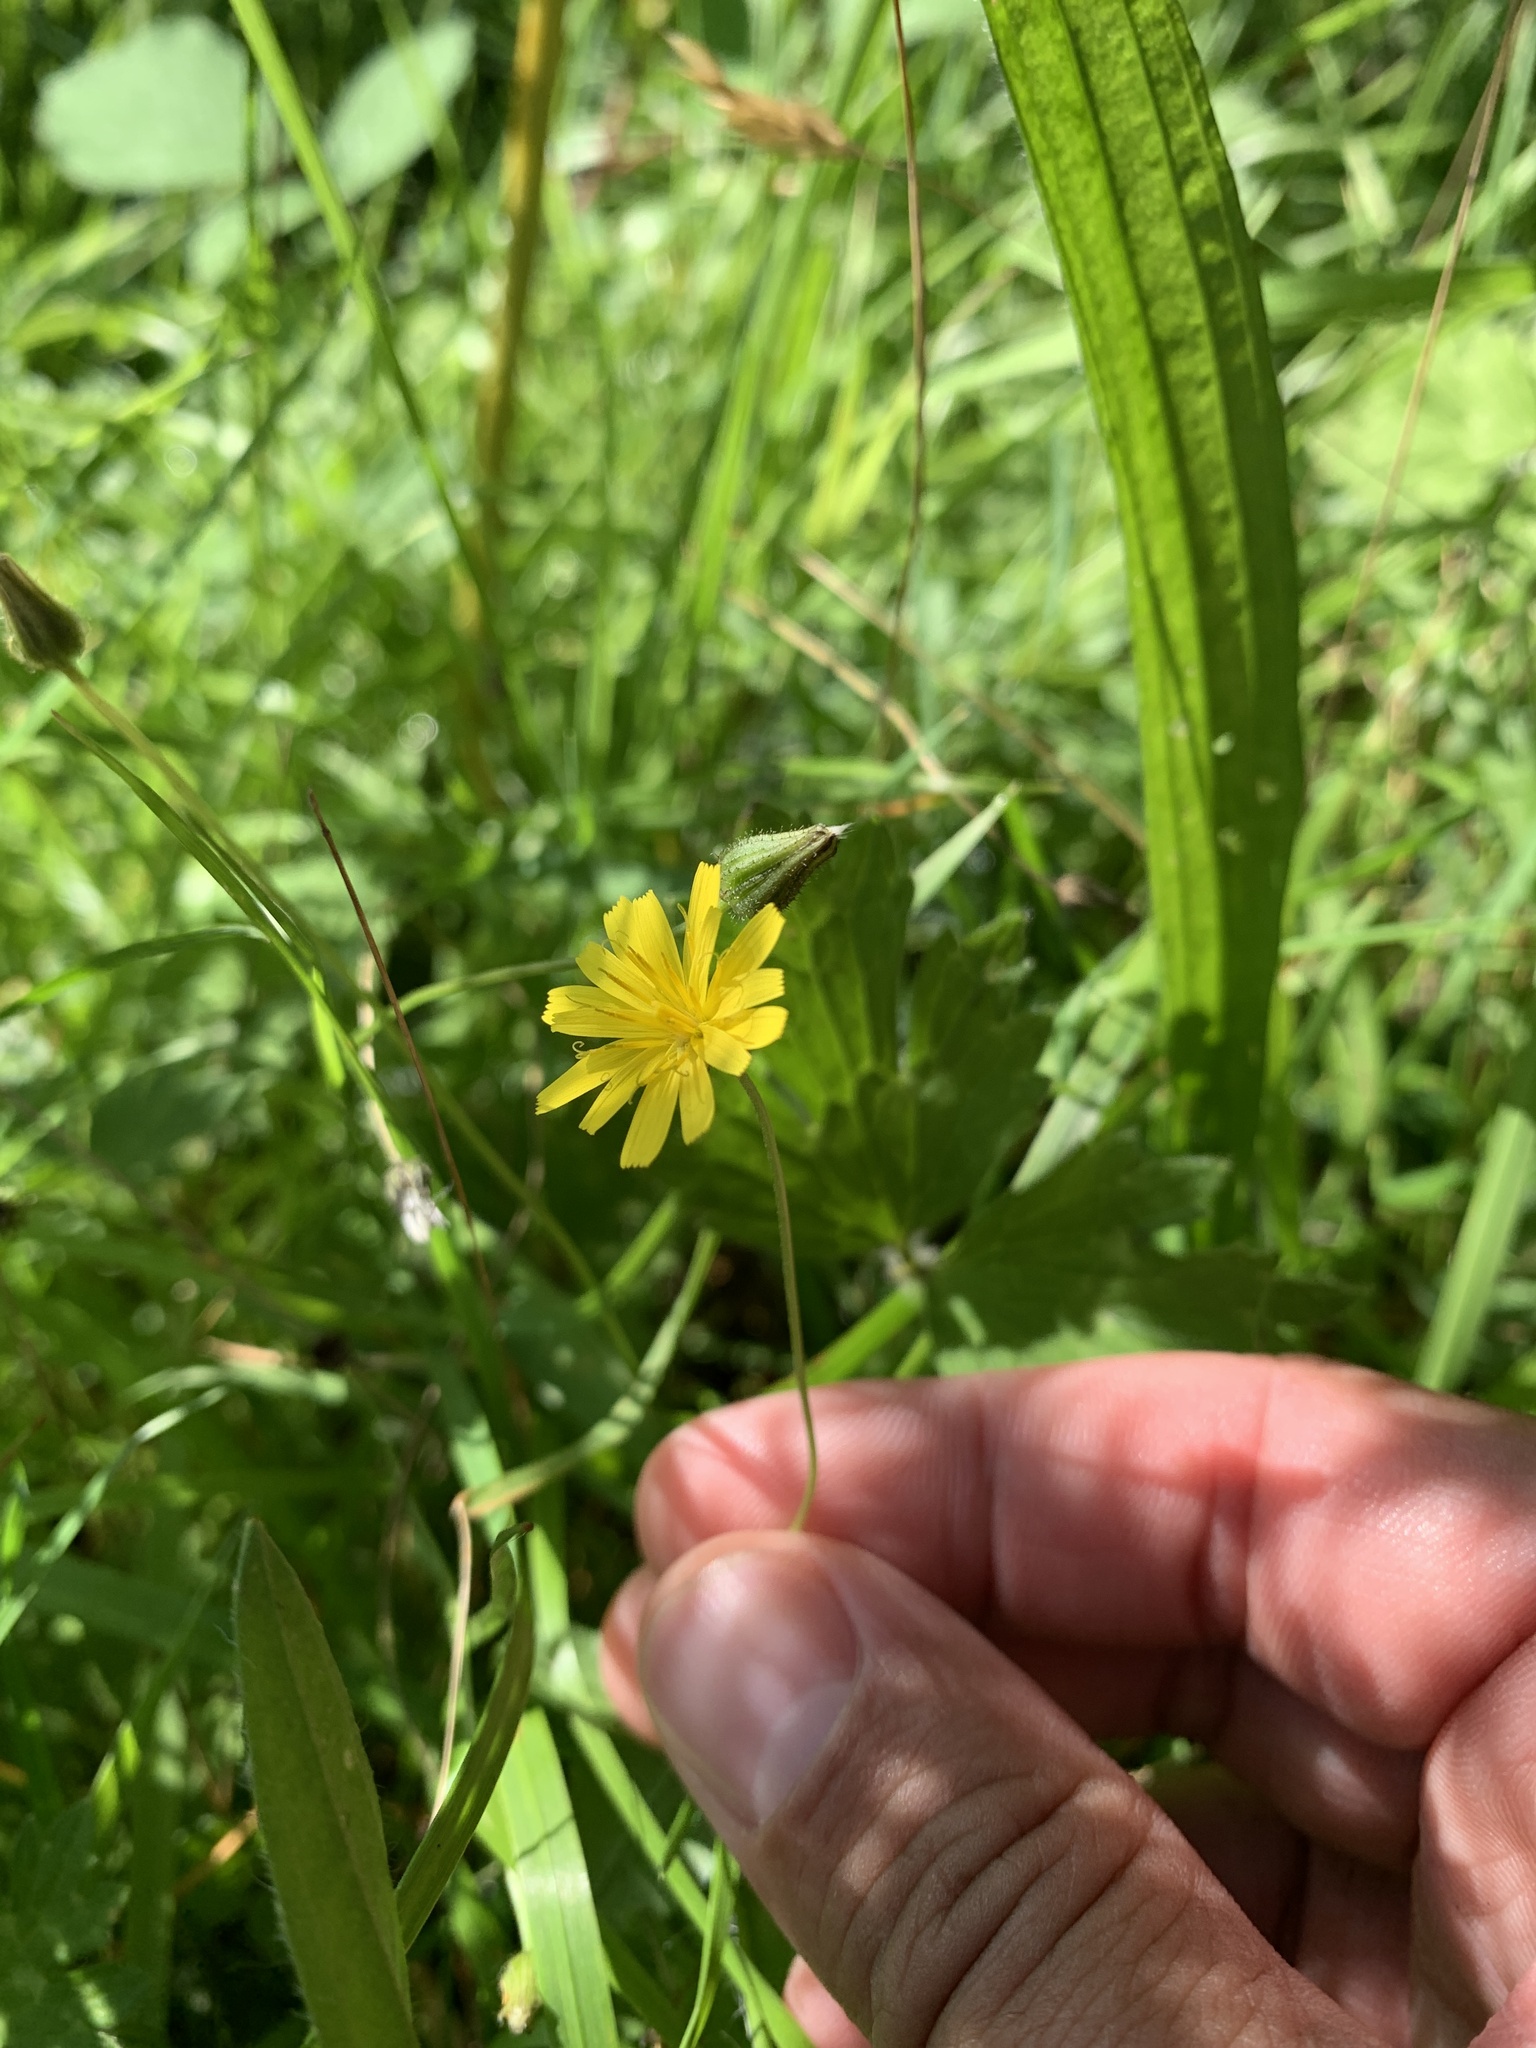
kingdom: Plantae
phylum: Tracheophyta
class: Magnoliopsida
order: Asterales
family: Asteraceae
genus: Crepis
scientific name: Crepis capillaris
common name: Smooth hawksbeard
